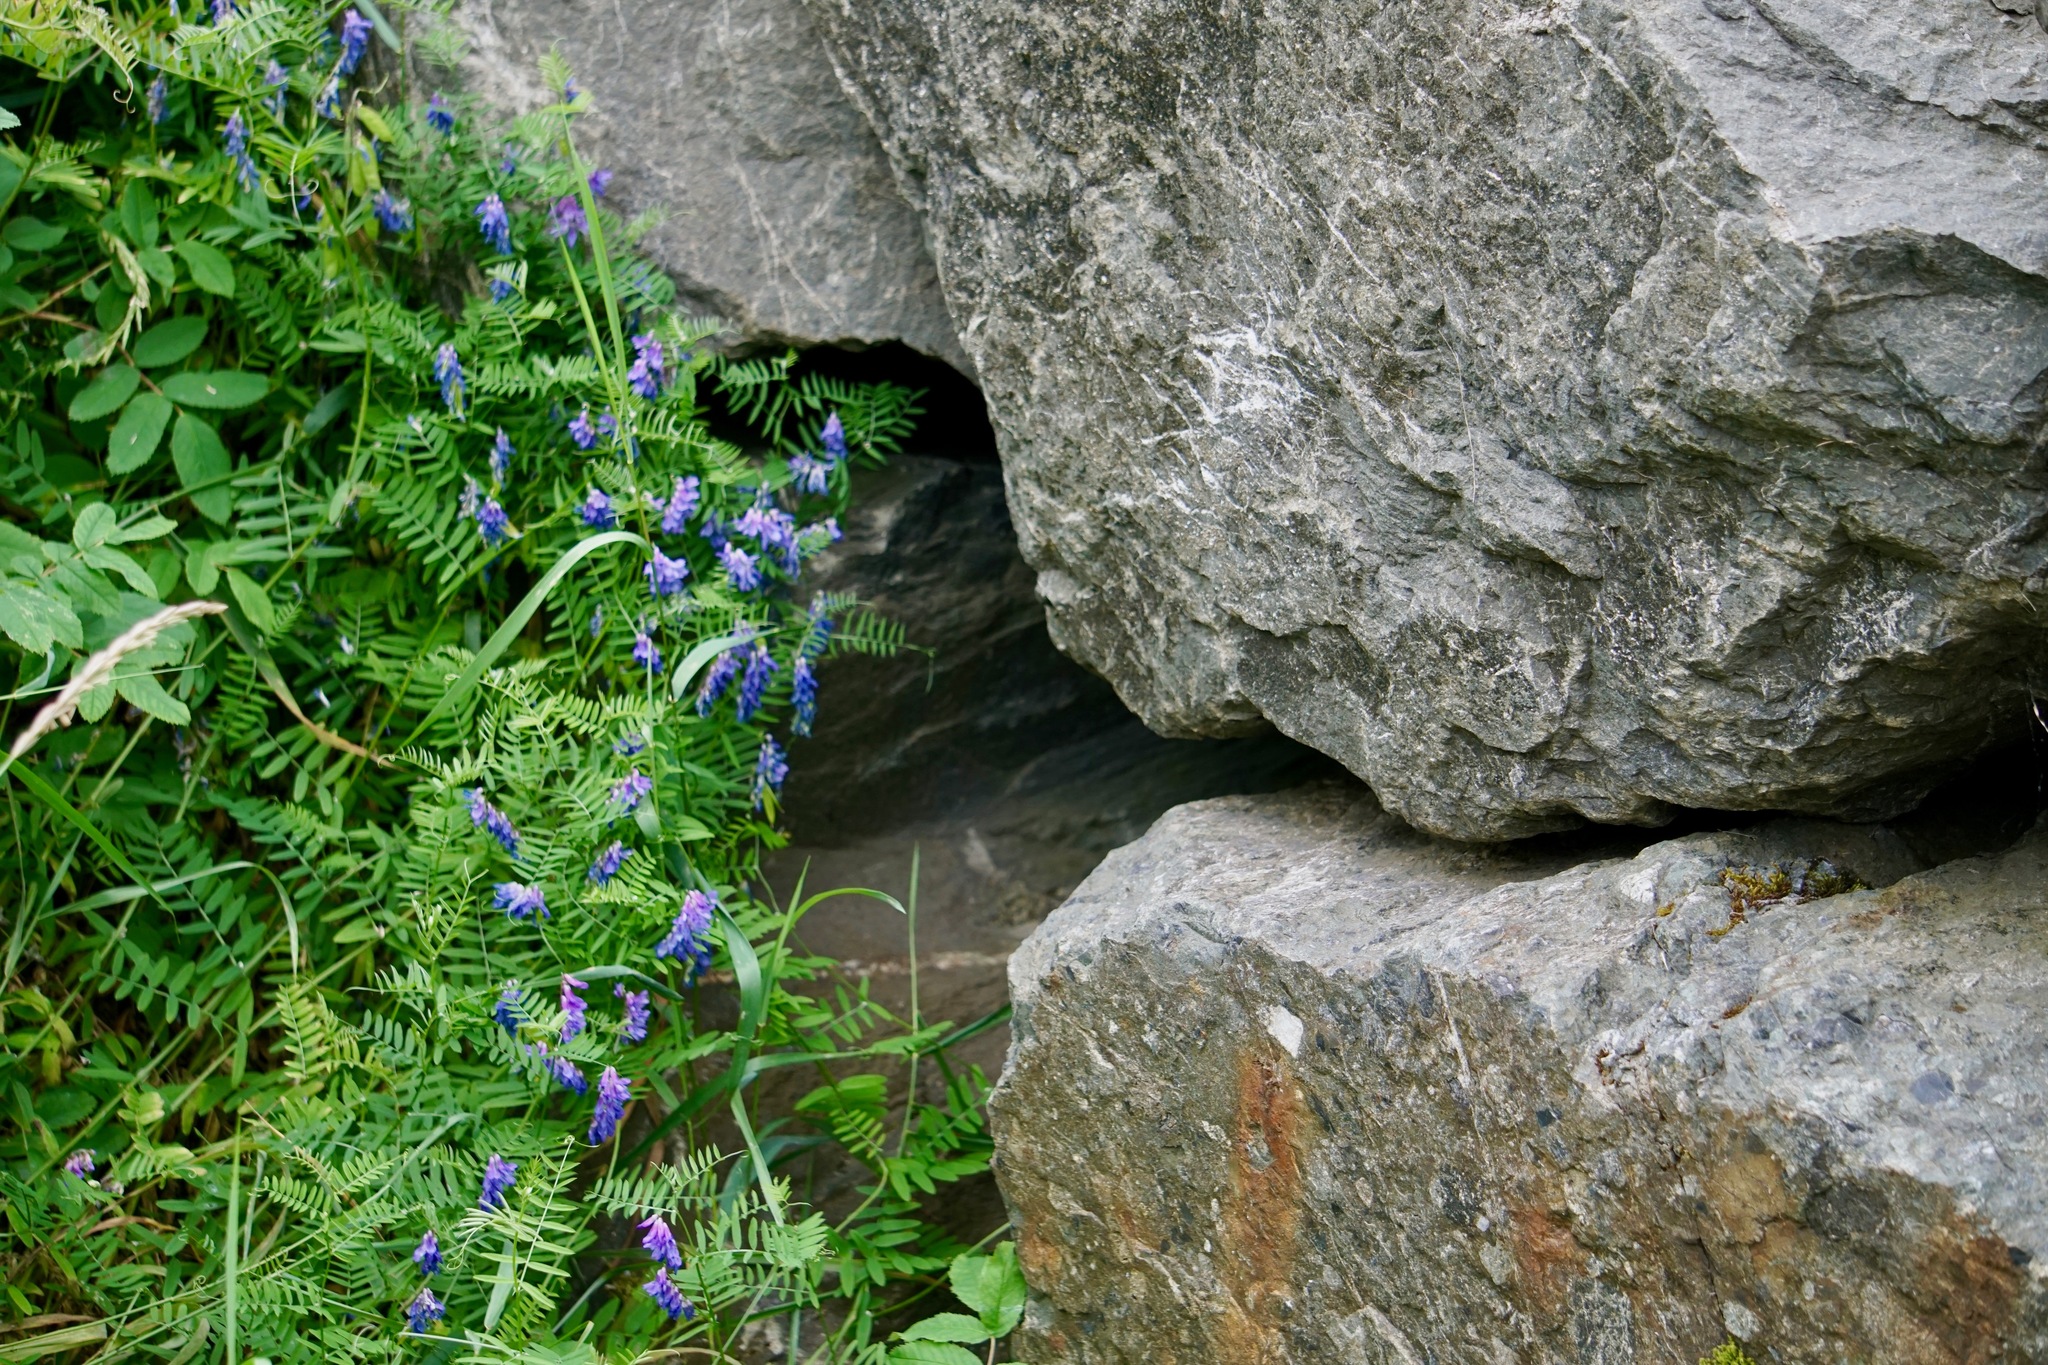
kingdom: Plantae
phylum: Tracheophyta
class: Magnoliopsida
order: Fabales
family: Fabaceae
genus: Vicia
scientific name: Vicia cracca
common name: Bird vetch
